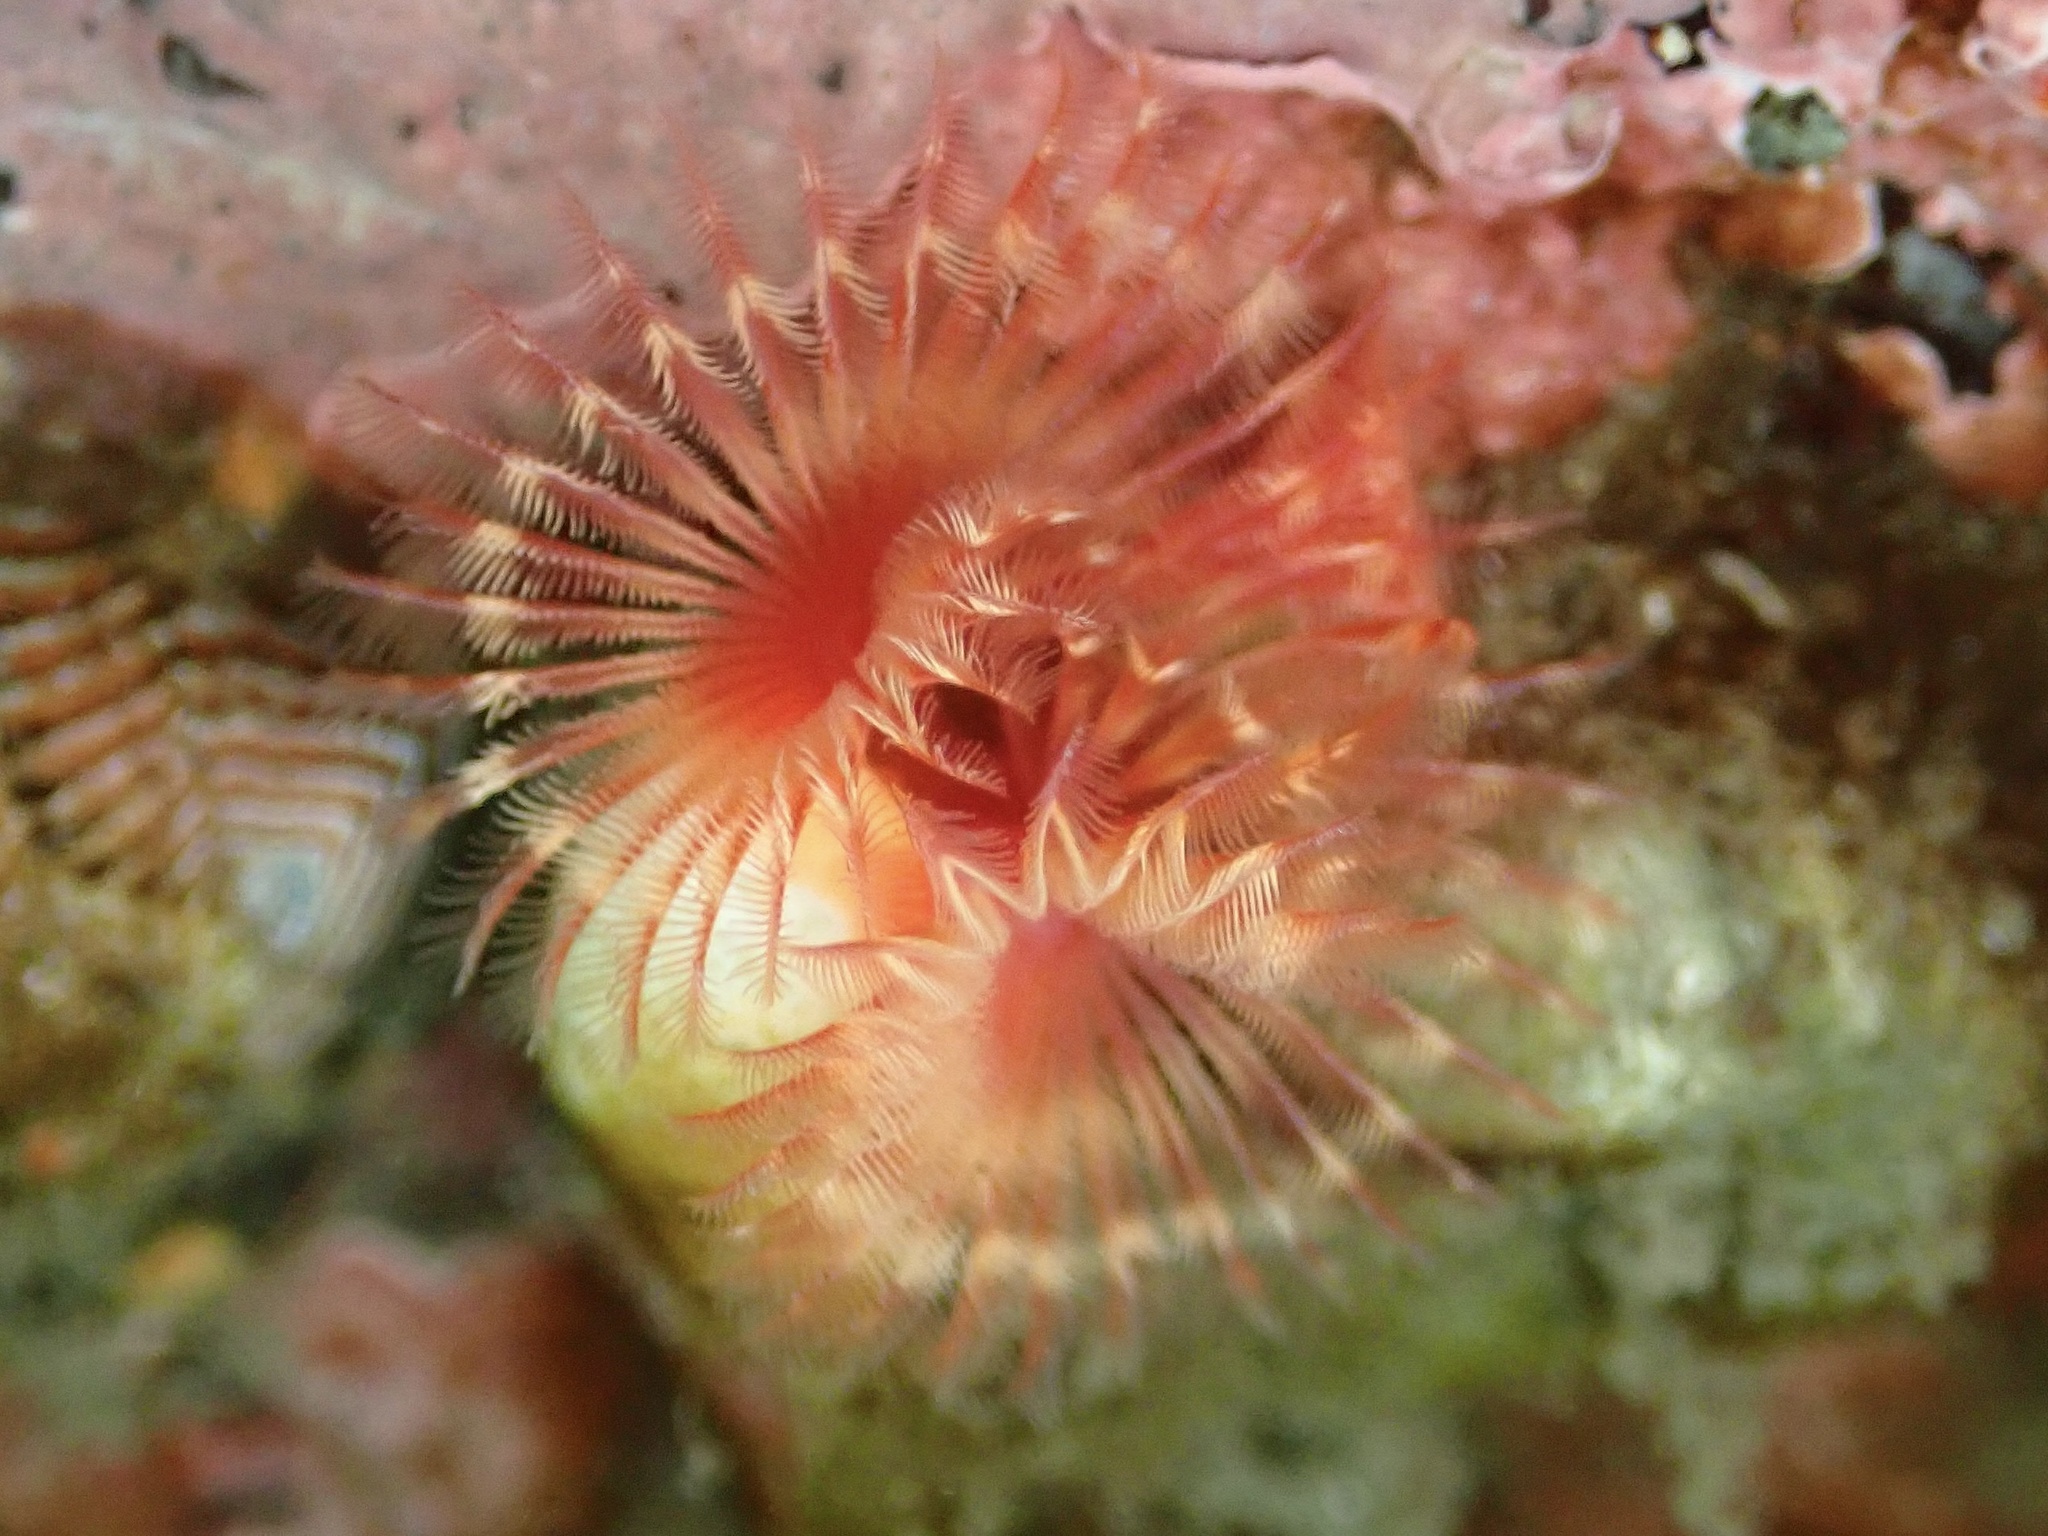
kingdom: Animalia
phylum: Annelida
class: Polychaeta
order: Sabellida
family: Serpulidae
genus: Serpula
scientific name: Serpula columbiana
